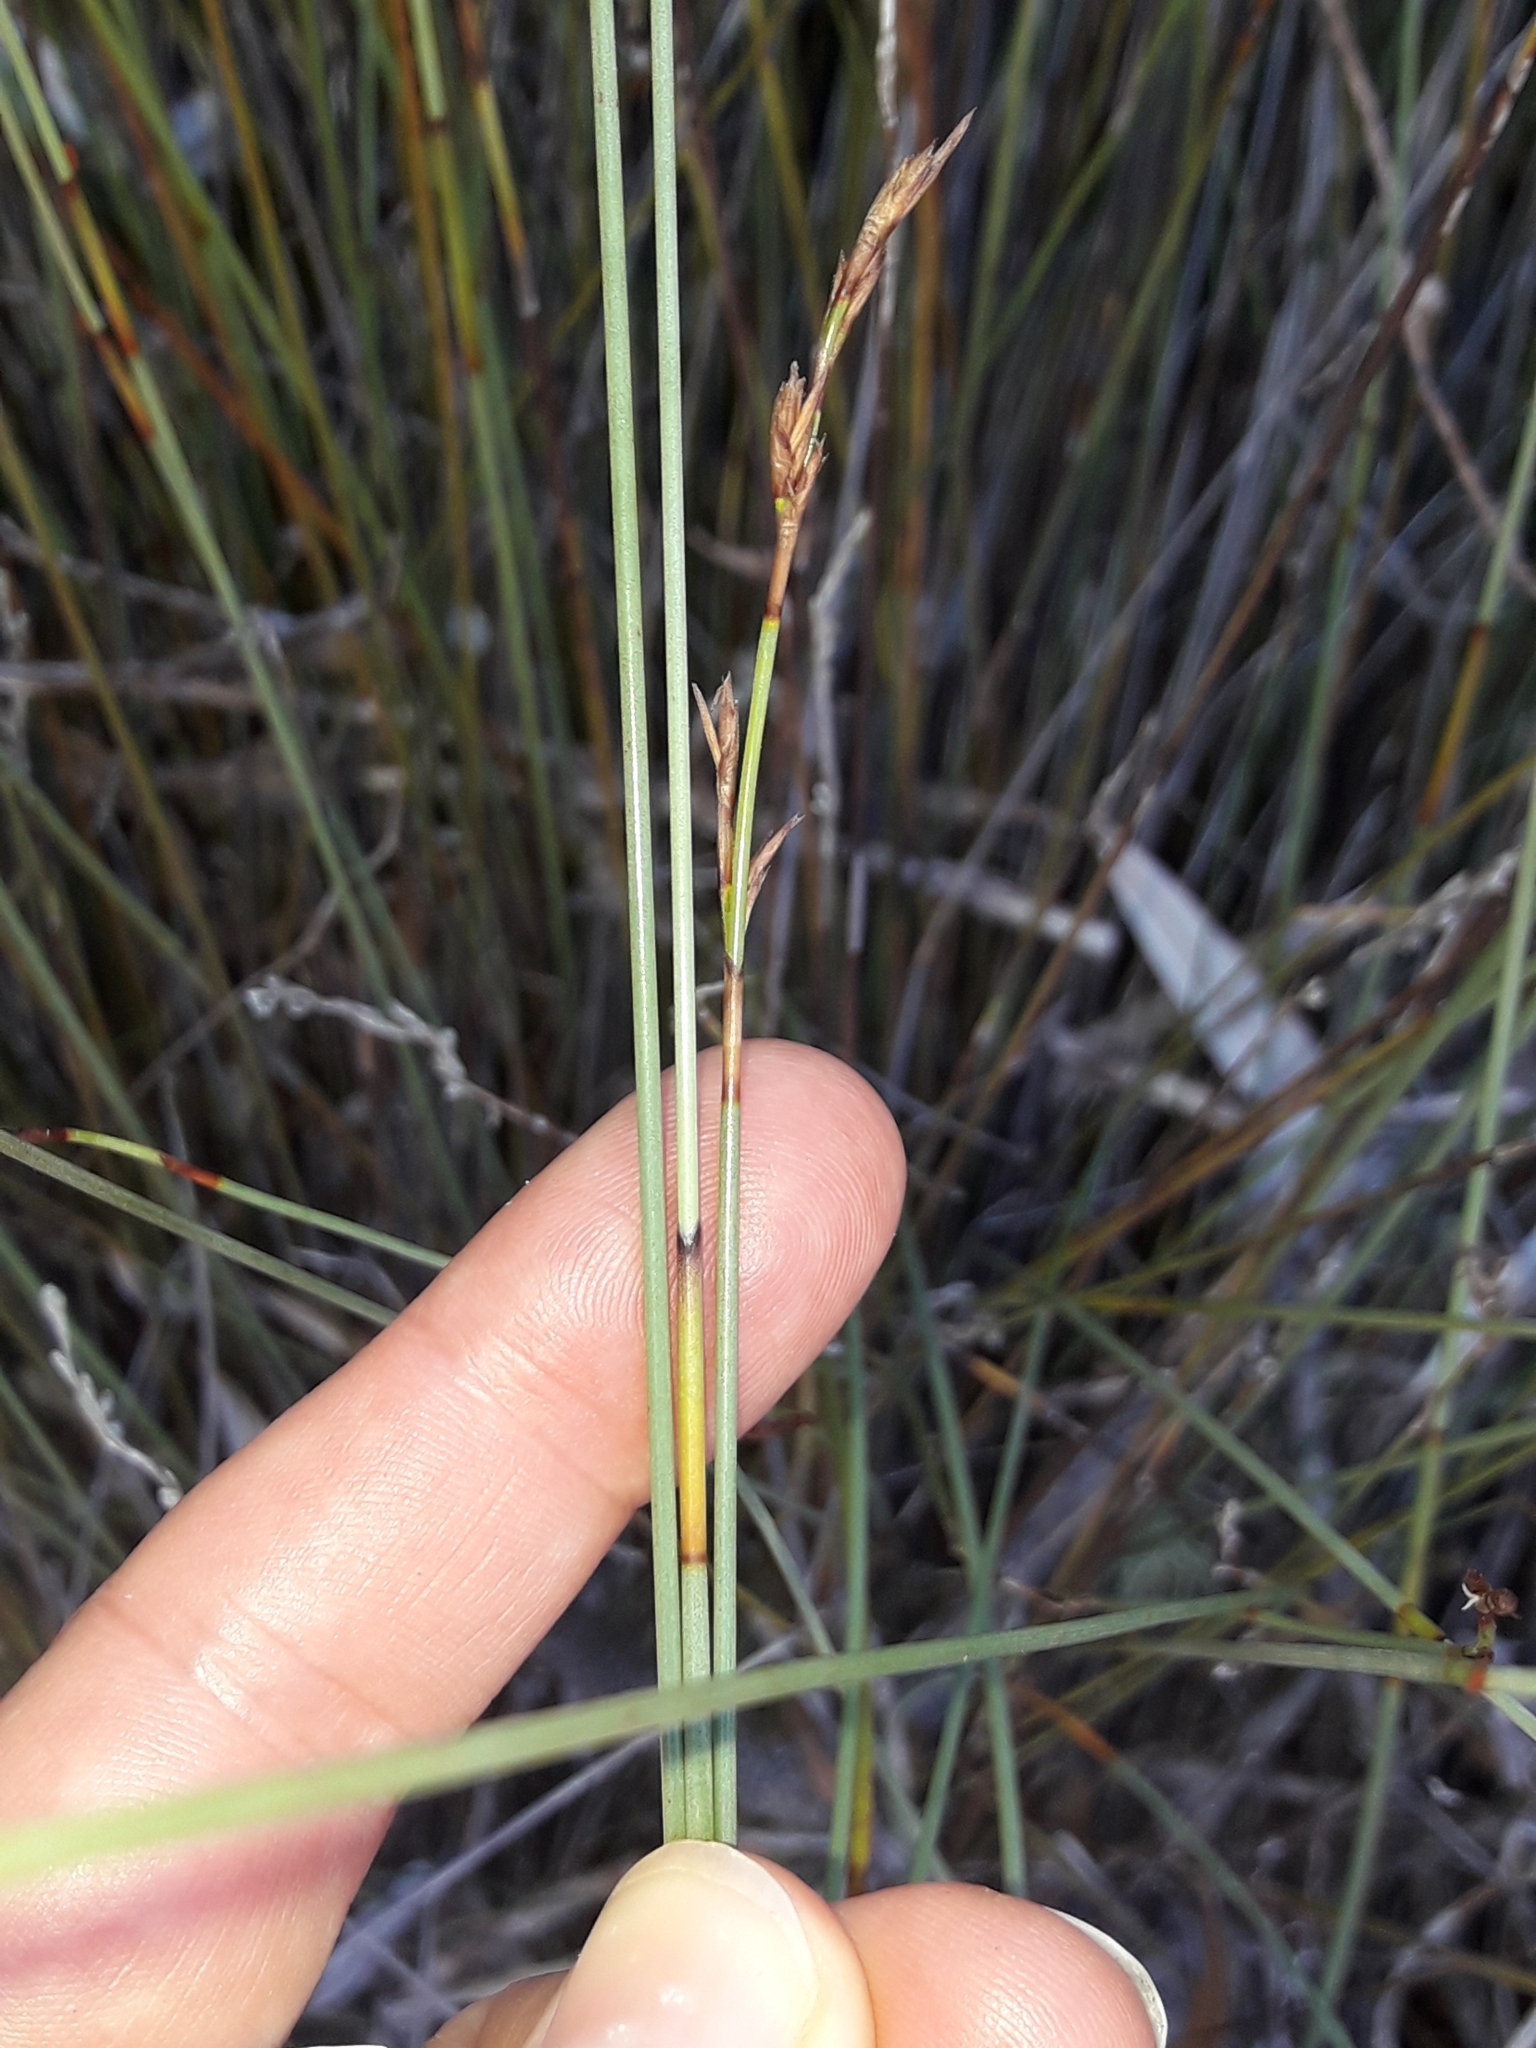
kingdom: Plantae
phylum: Tracheophyta
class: Liliopsida
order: Poales
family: Cyperaceae
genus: Machaerina
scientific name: Machaerina juncea
